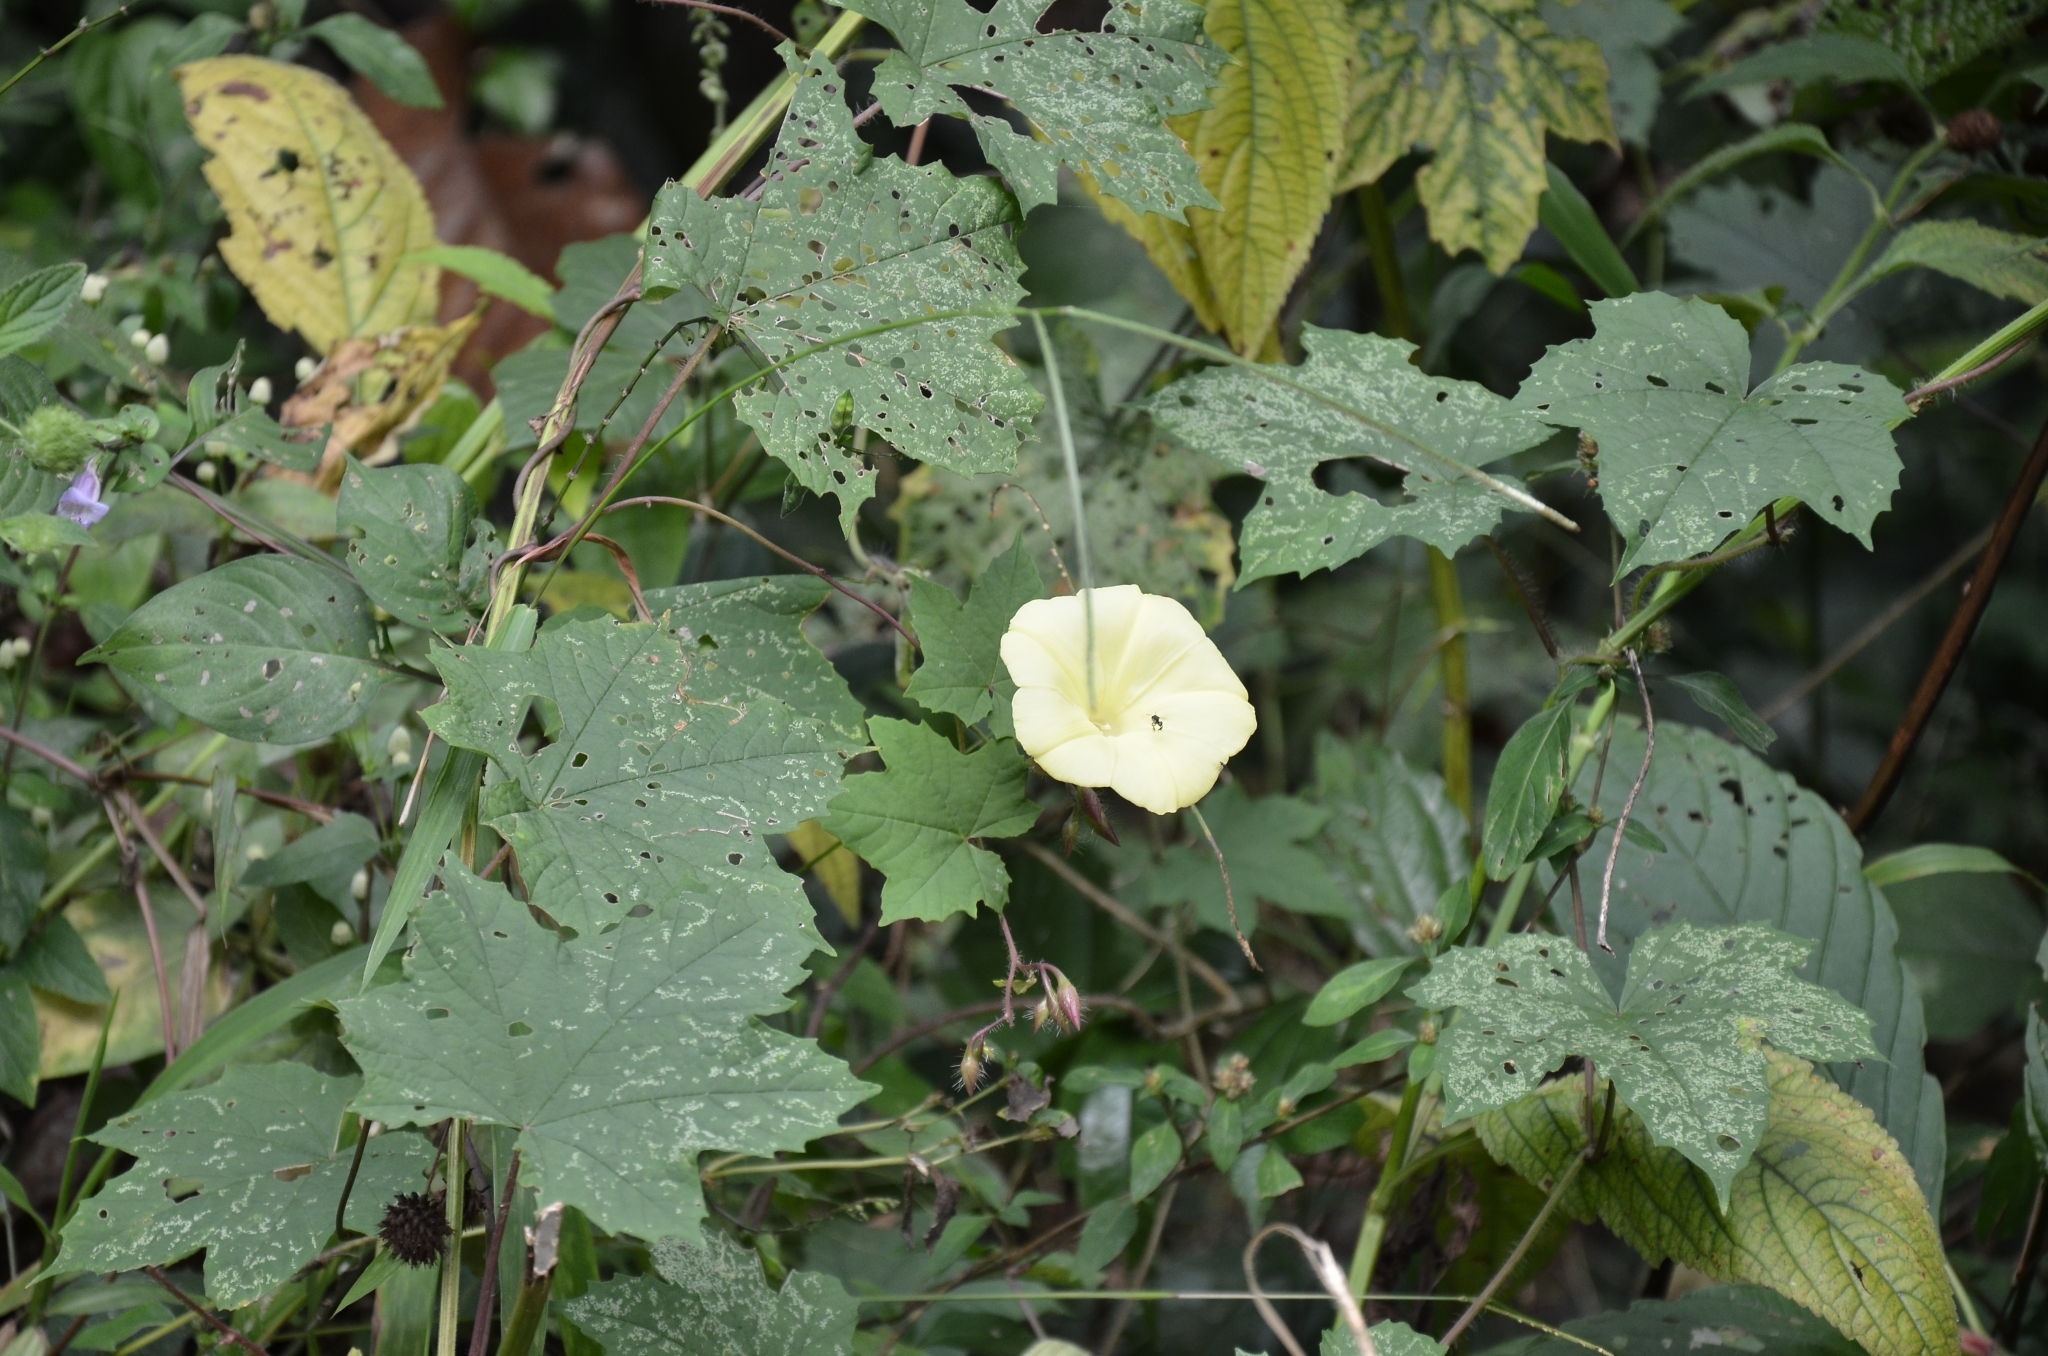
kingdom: Plantae
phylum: Tracheophyta
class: Magnoliopsida
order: Solanales
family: Convolvulaceae
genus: Distimake
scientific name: Distimake
